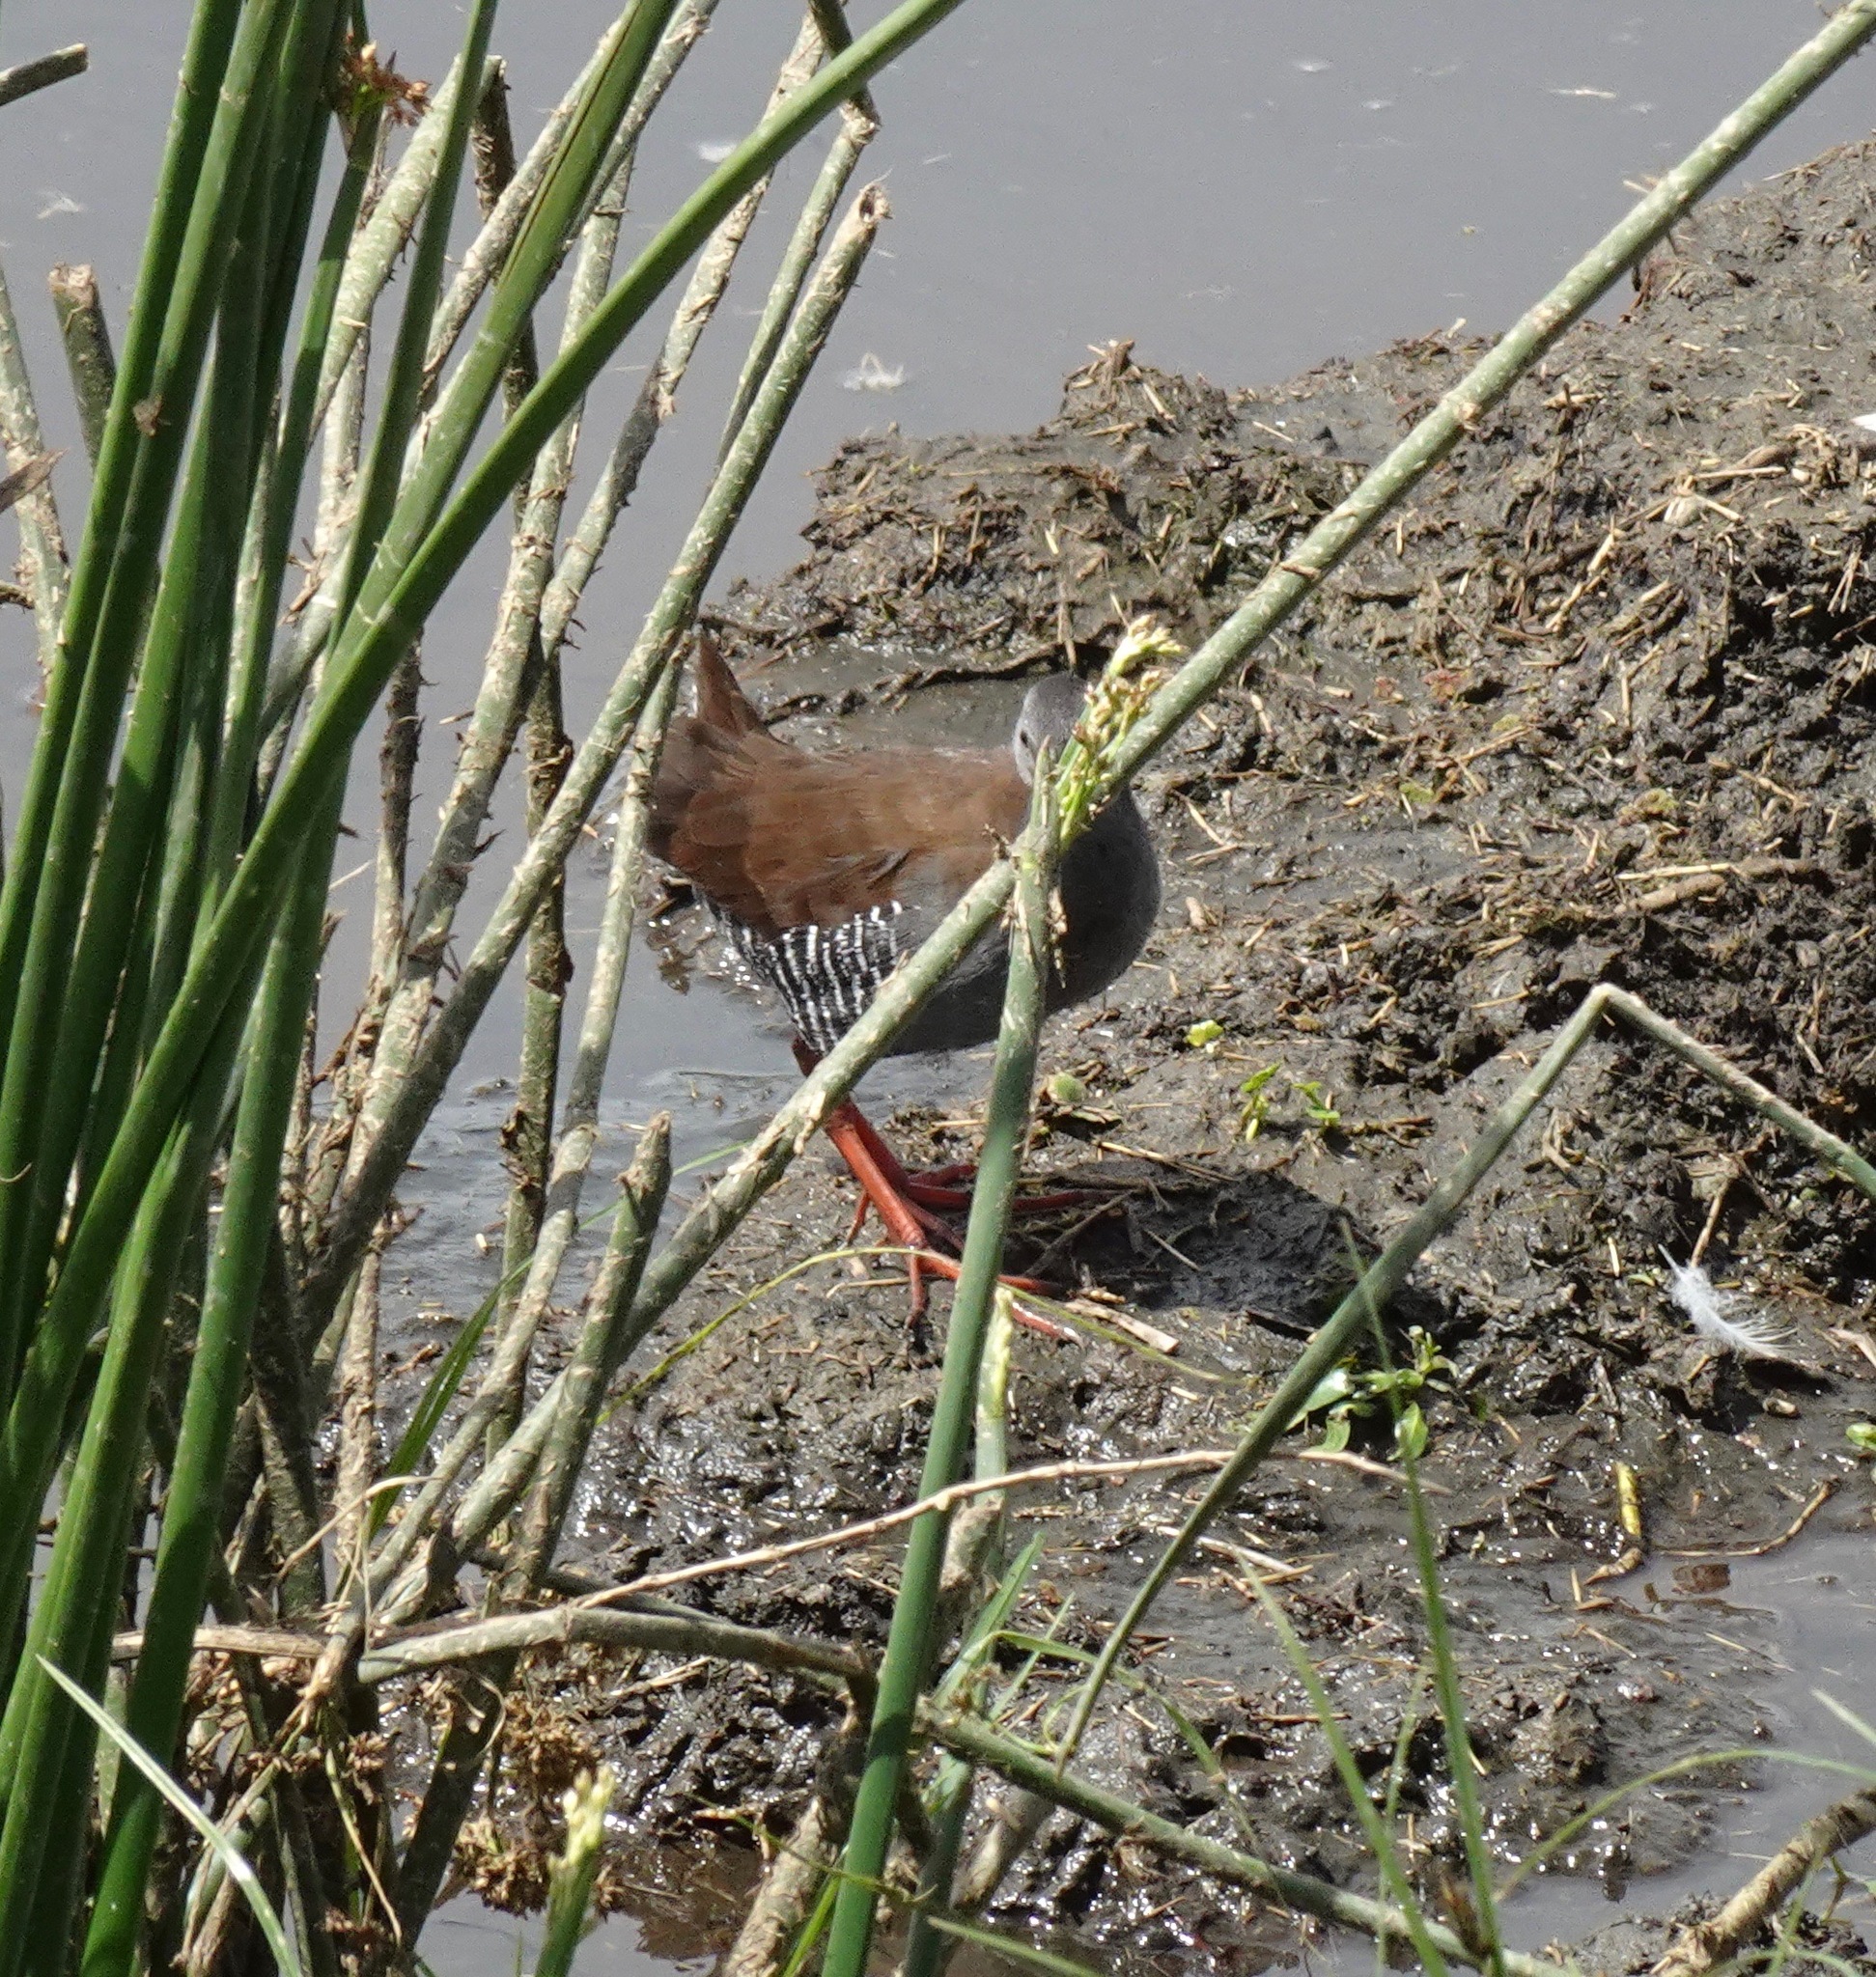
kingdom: Animalia
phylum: Chordata
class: Aves
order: Gruiformes
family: Rallidae
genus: Rallus
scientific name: Rallus caerulescens
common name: African rail
